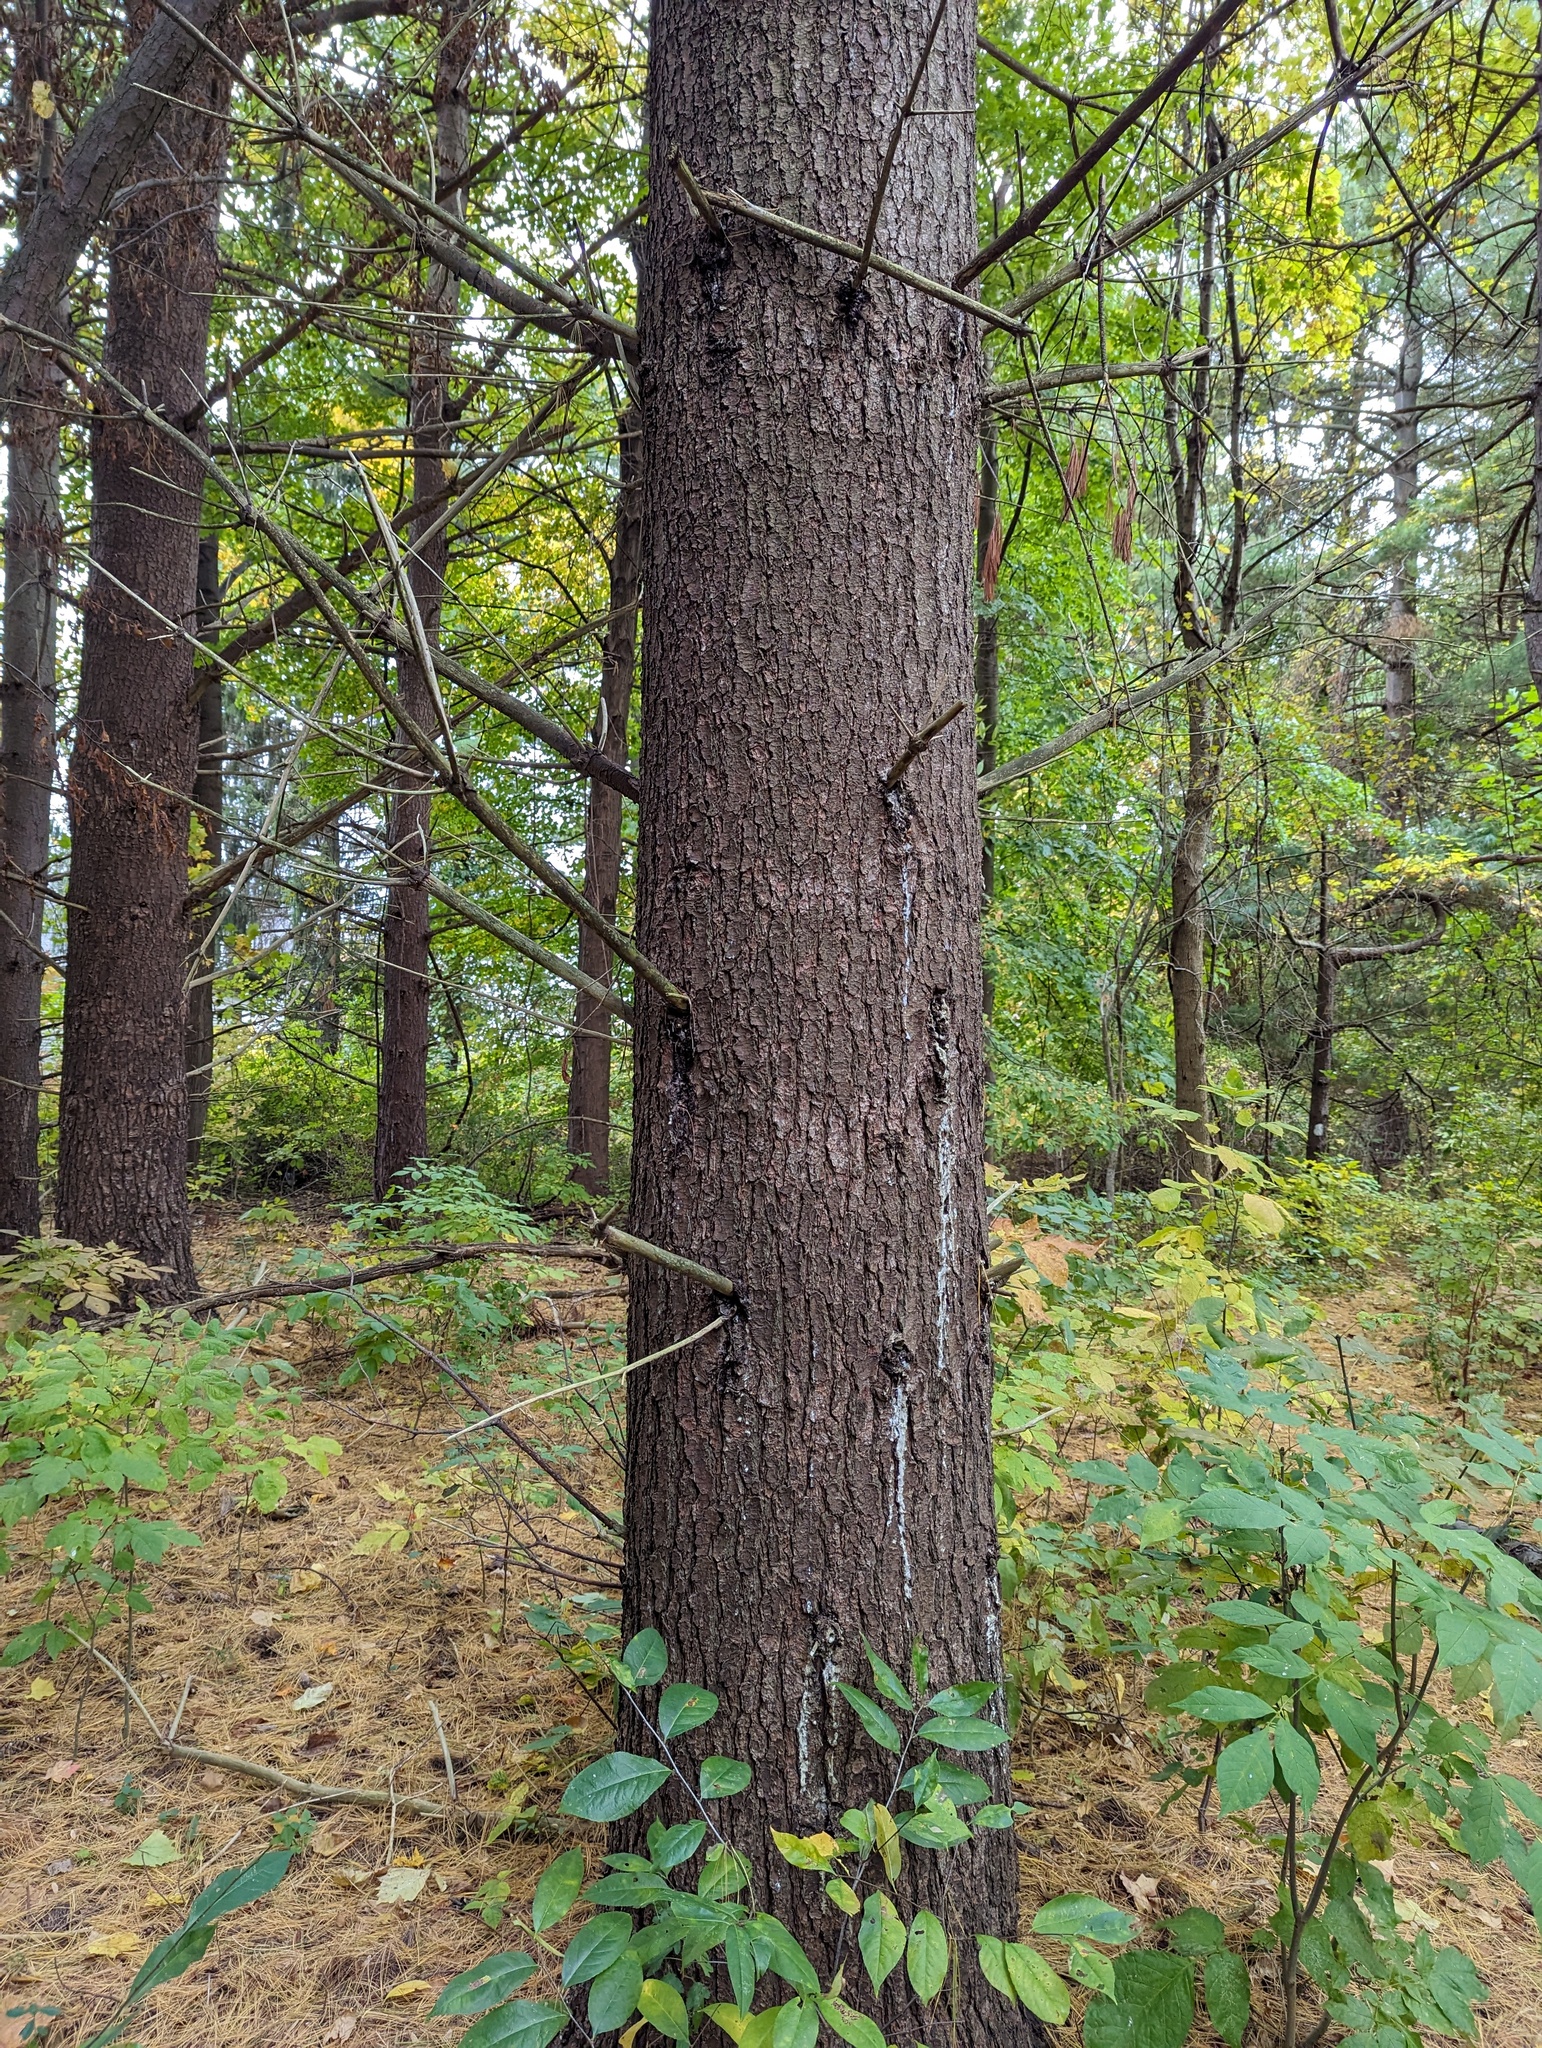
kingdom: Plantae
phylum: Tracheophyta
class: Pinopsida
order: Pinales
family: Pinaceae
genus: Pinus
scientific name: Pinus strobus
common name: Weymouth pine
